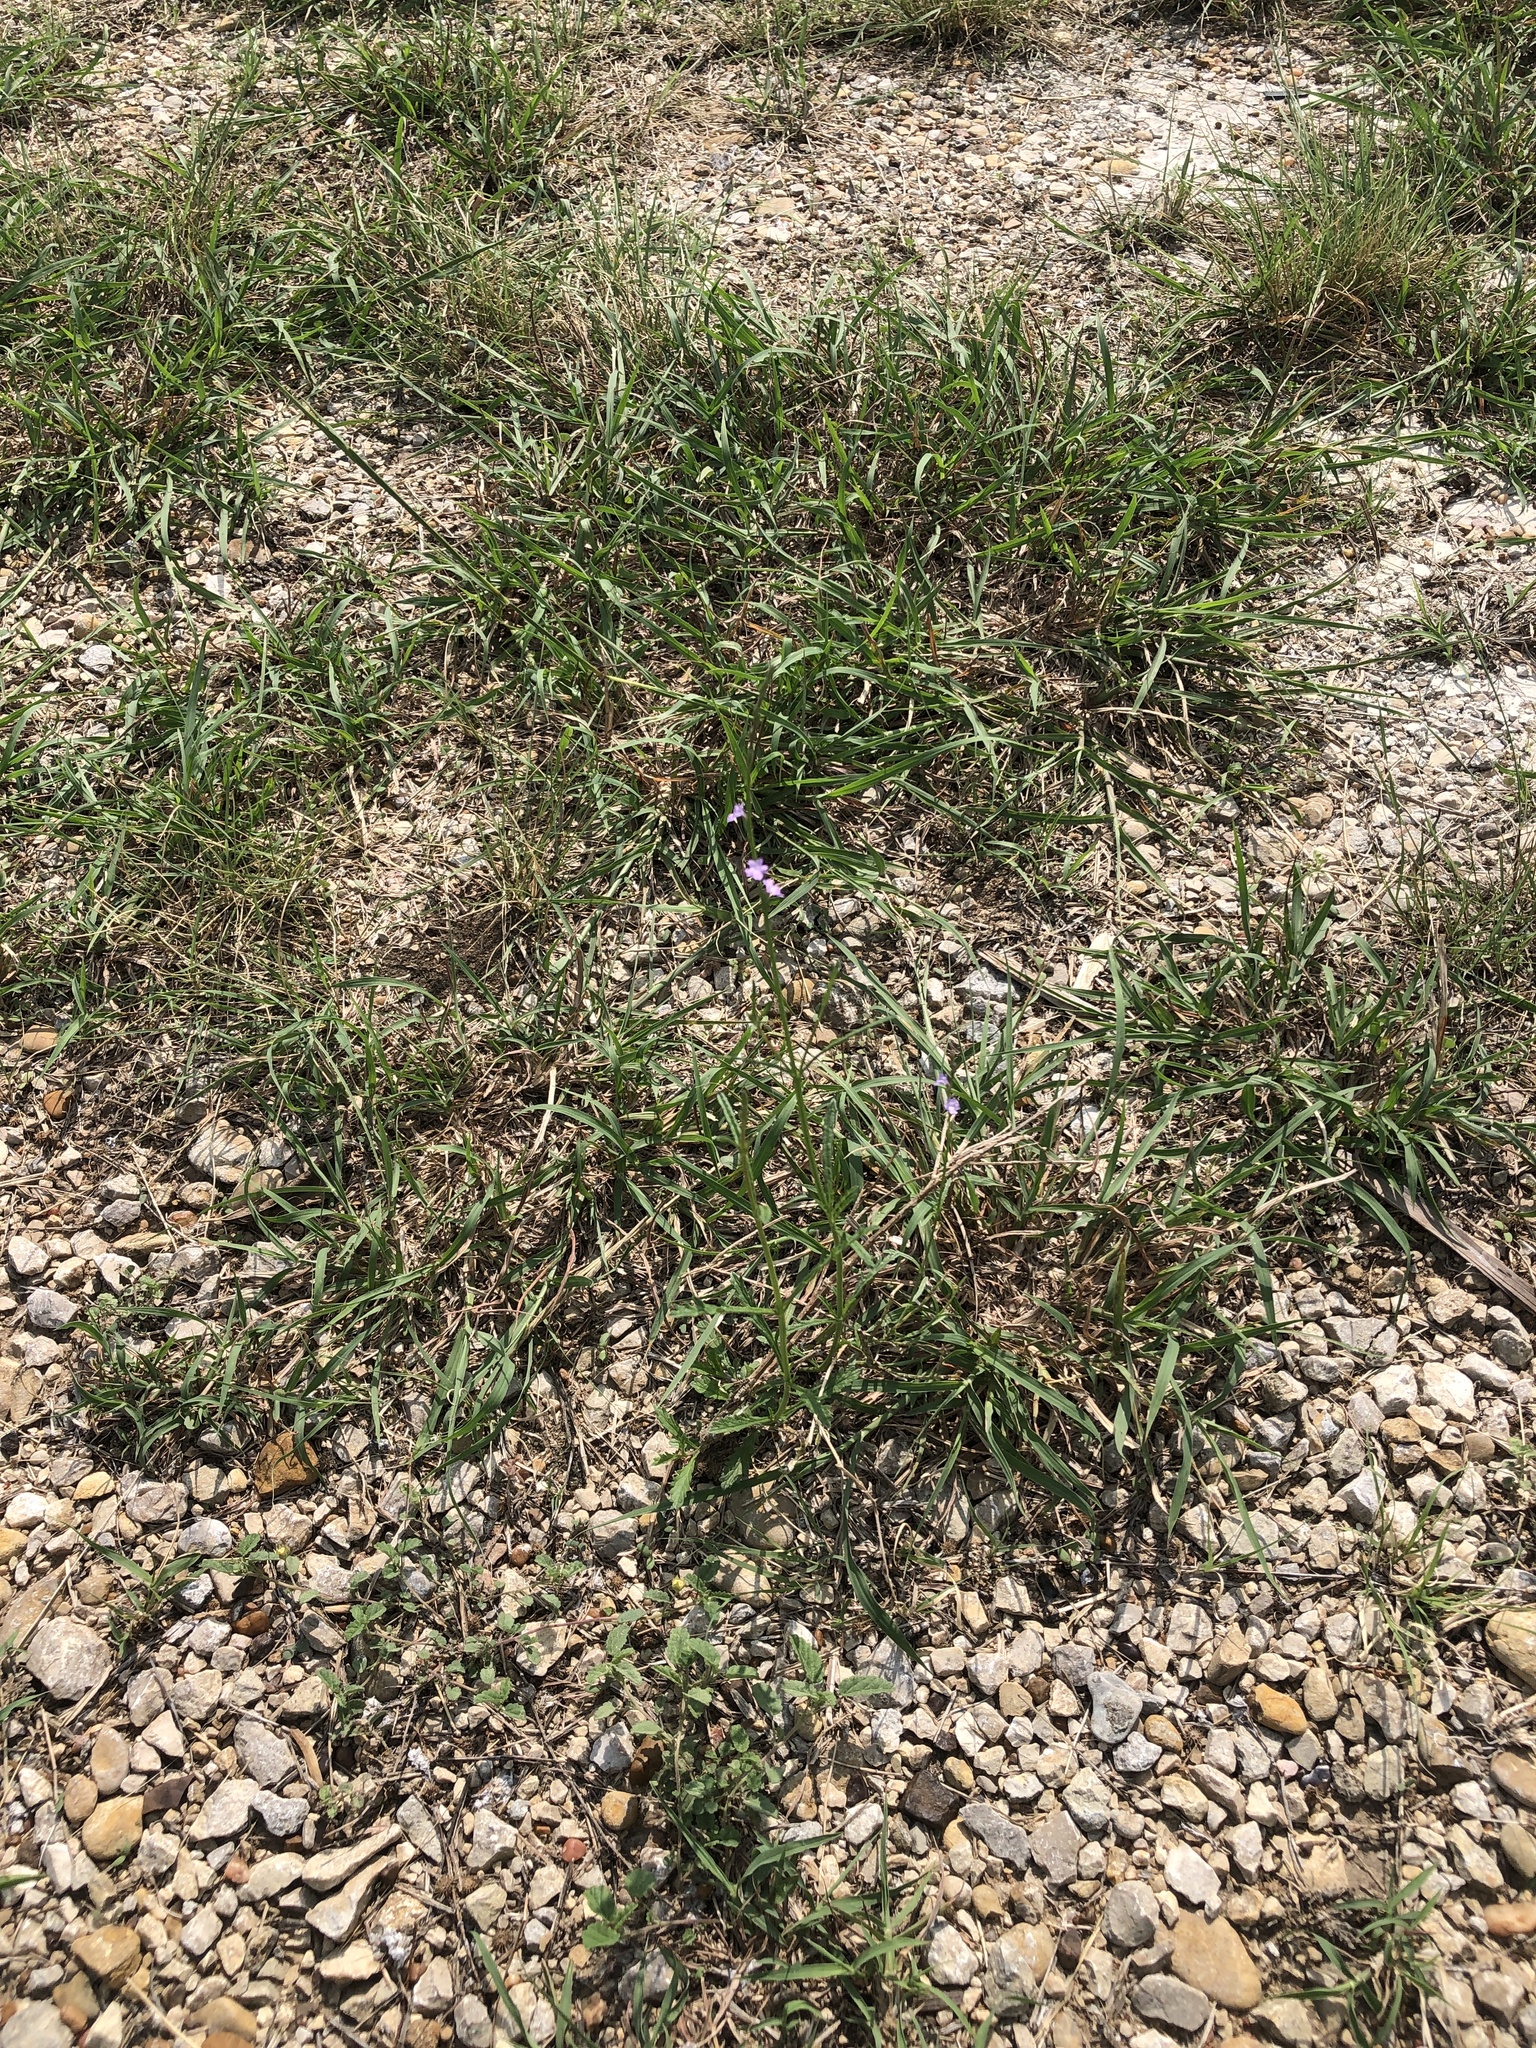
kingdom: Plantae
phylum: Tracheophyta
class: Magnoliopsida
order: Lamiales
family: Verbenaceae
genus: Verbena
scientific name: Verbena halei
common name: Texas vervain
